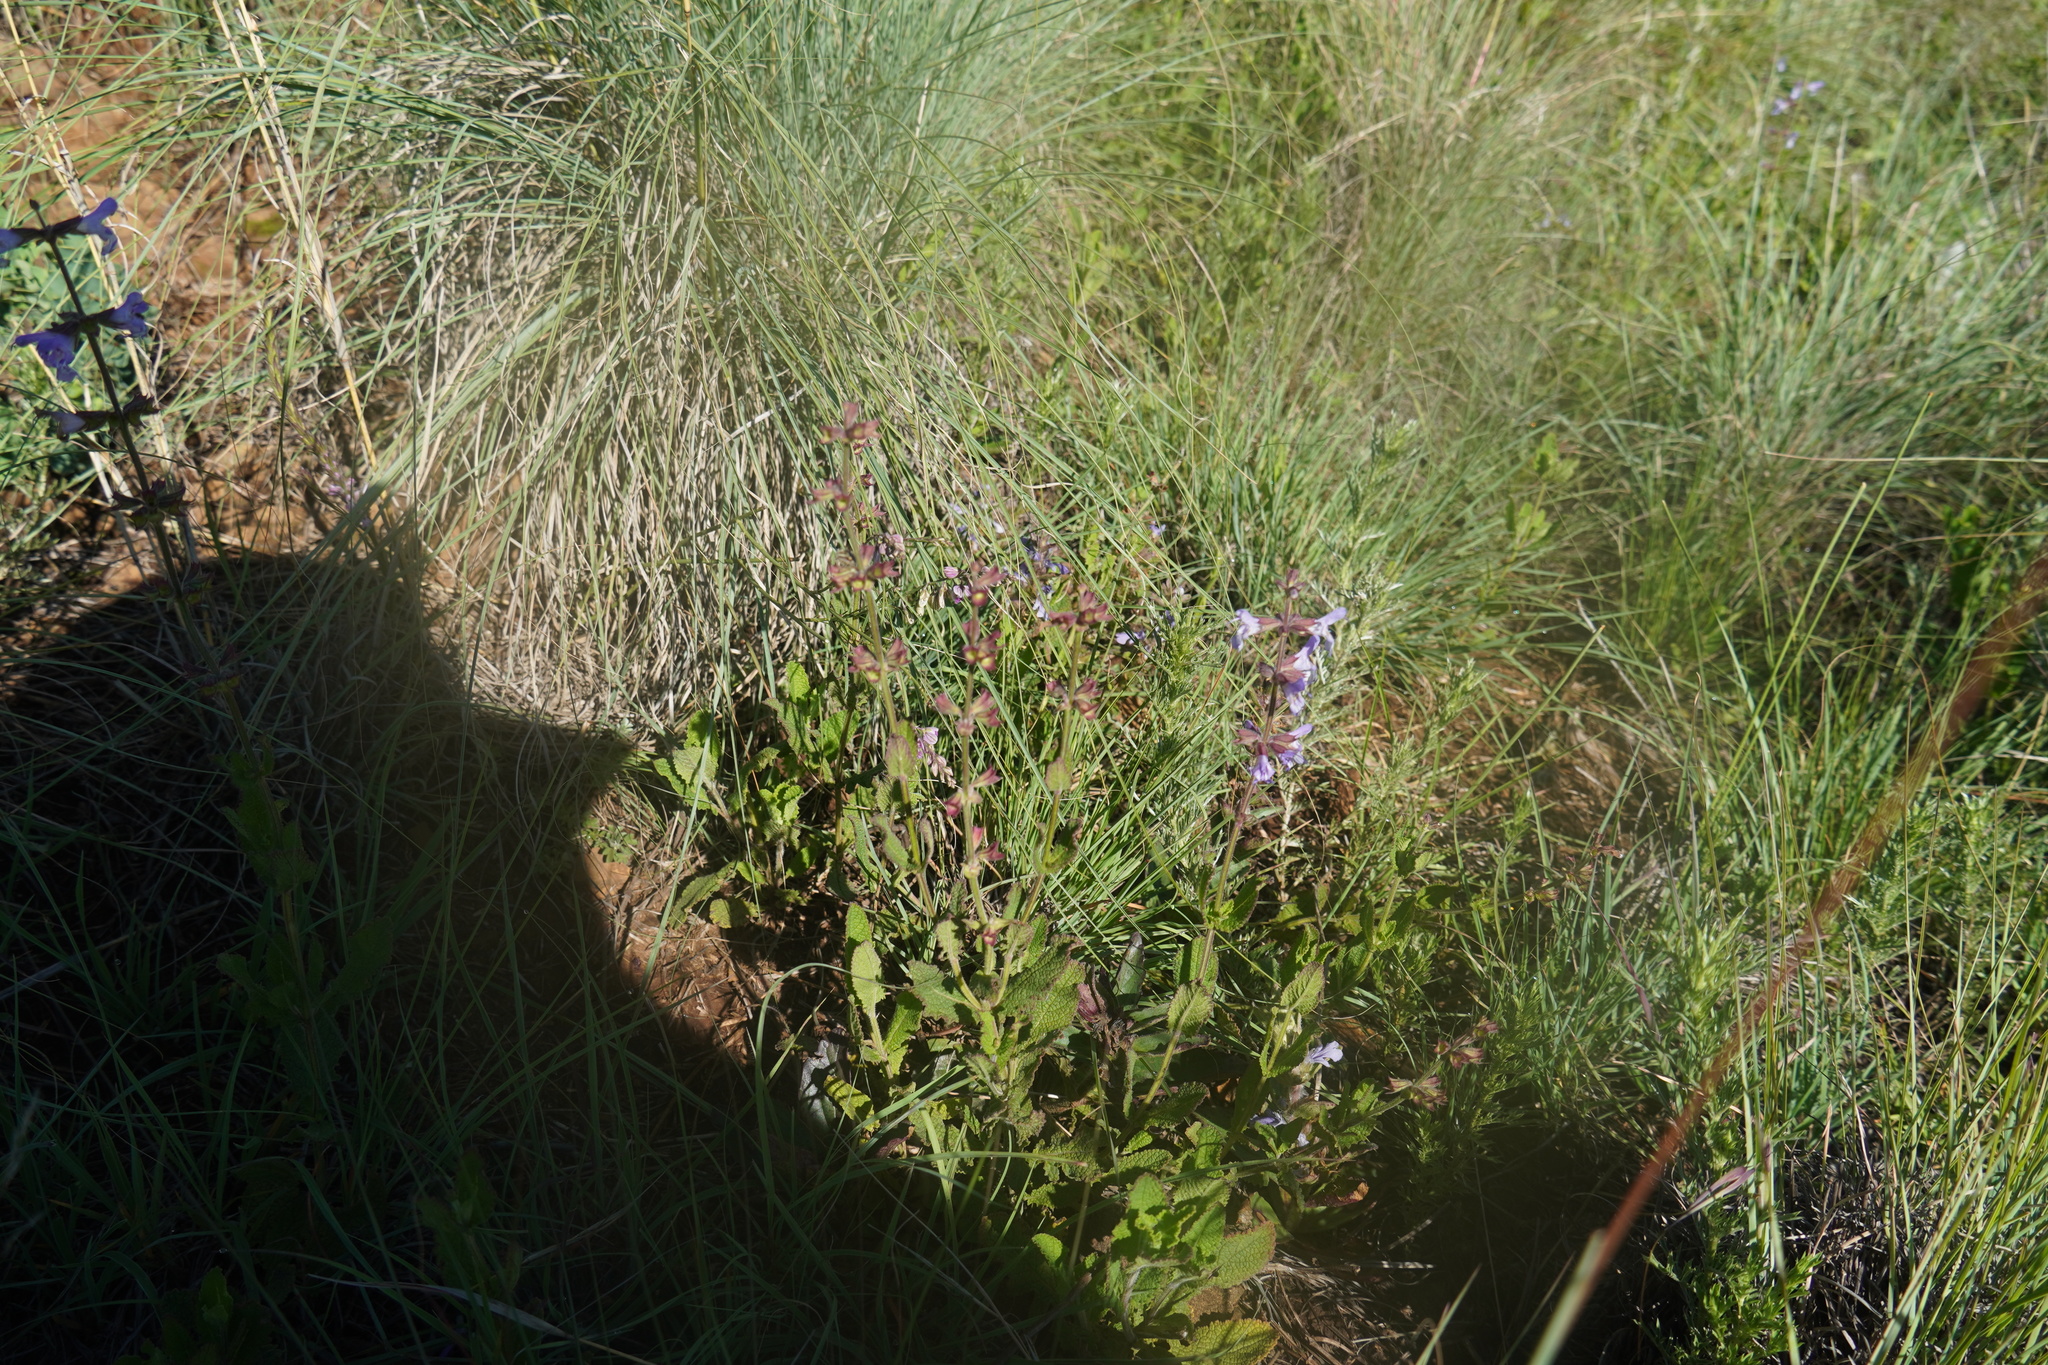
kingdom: Plantae
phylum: Tracheophyta
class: Magnoliopsida
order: Lamiales
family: Lamiaceae
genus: Salvia
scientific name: Salvia repens
